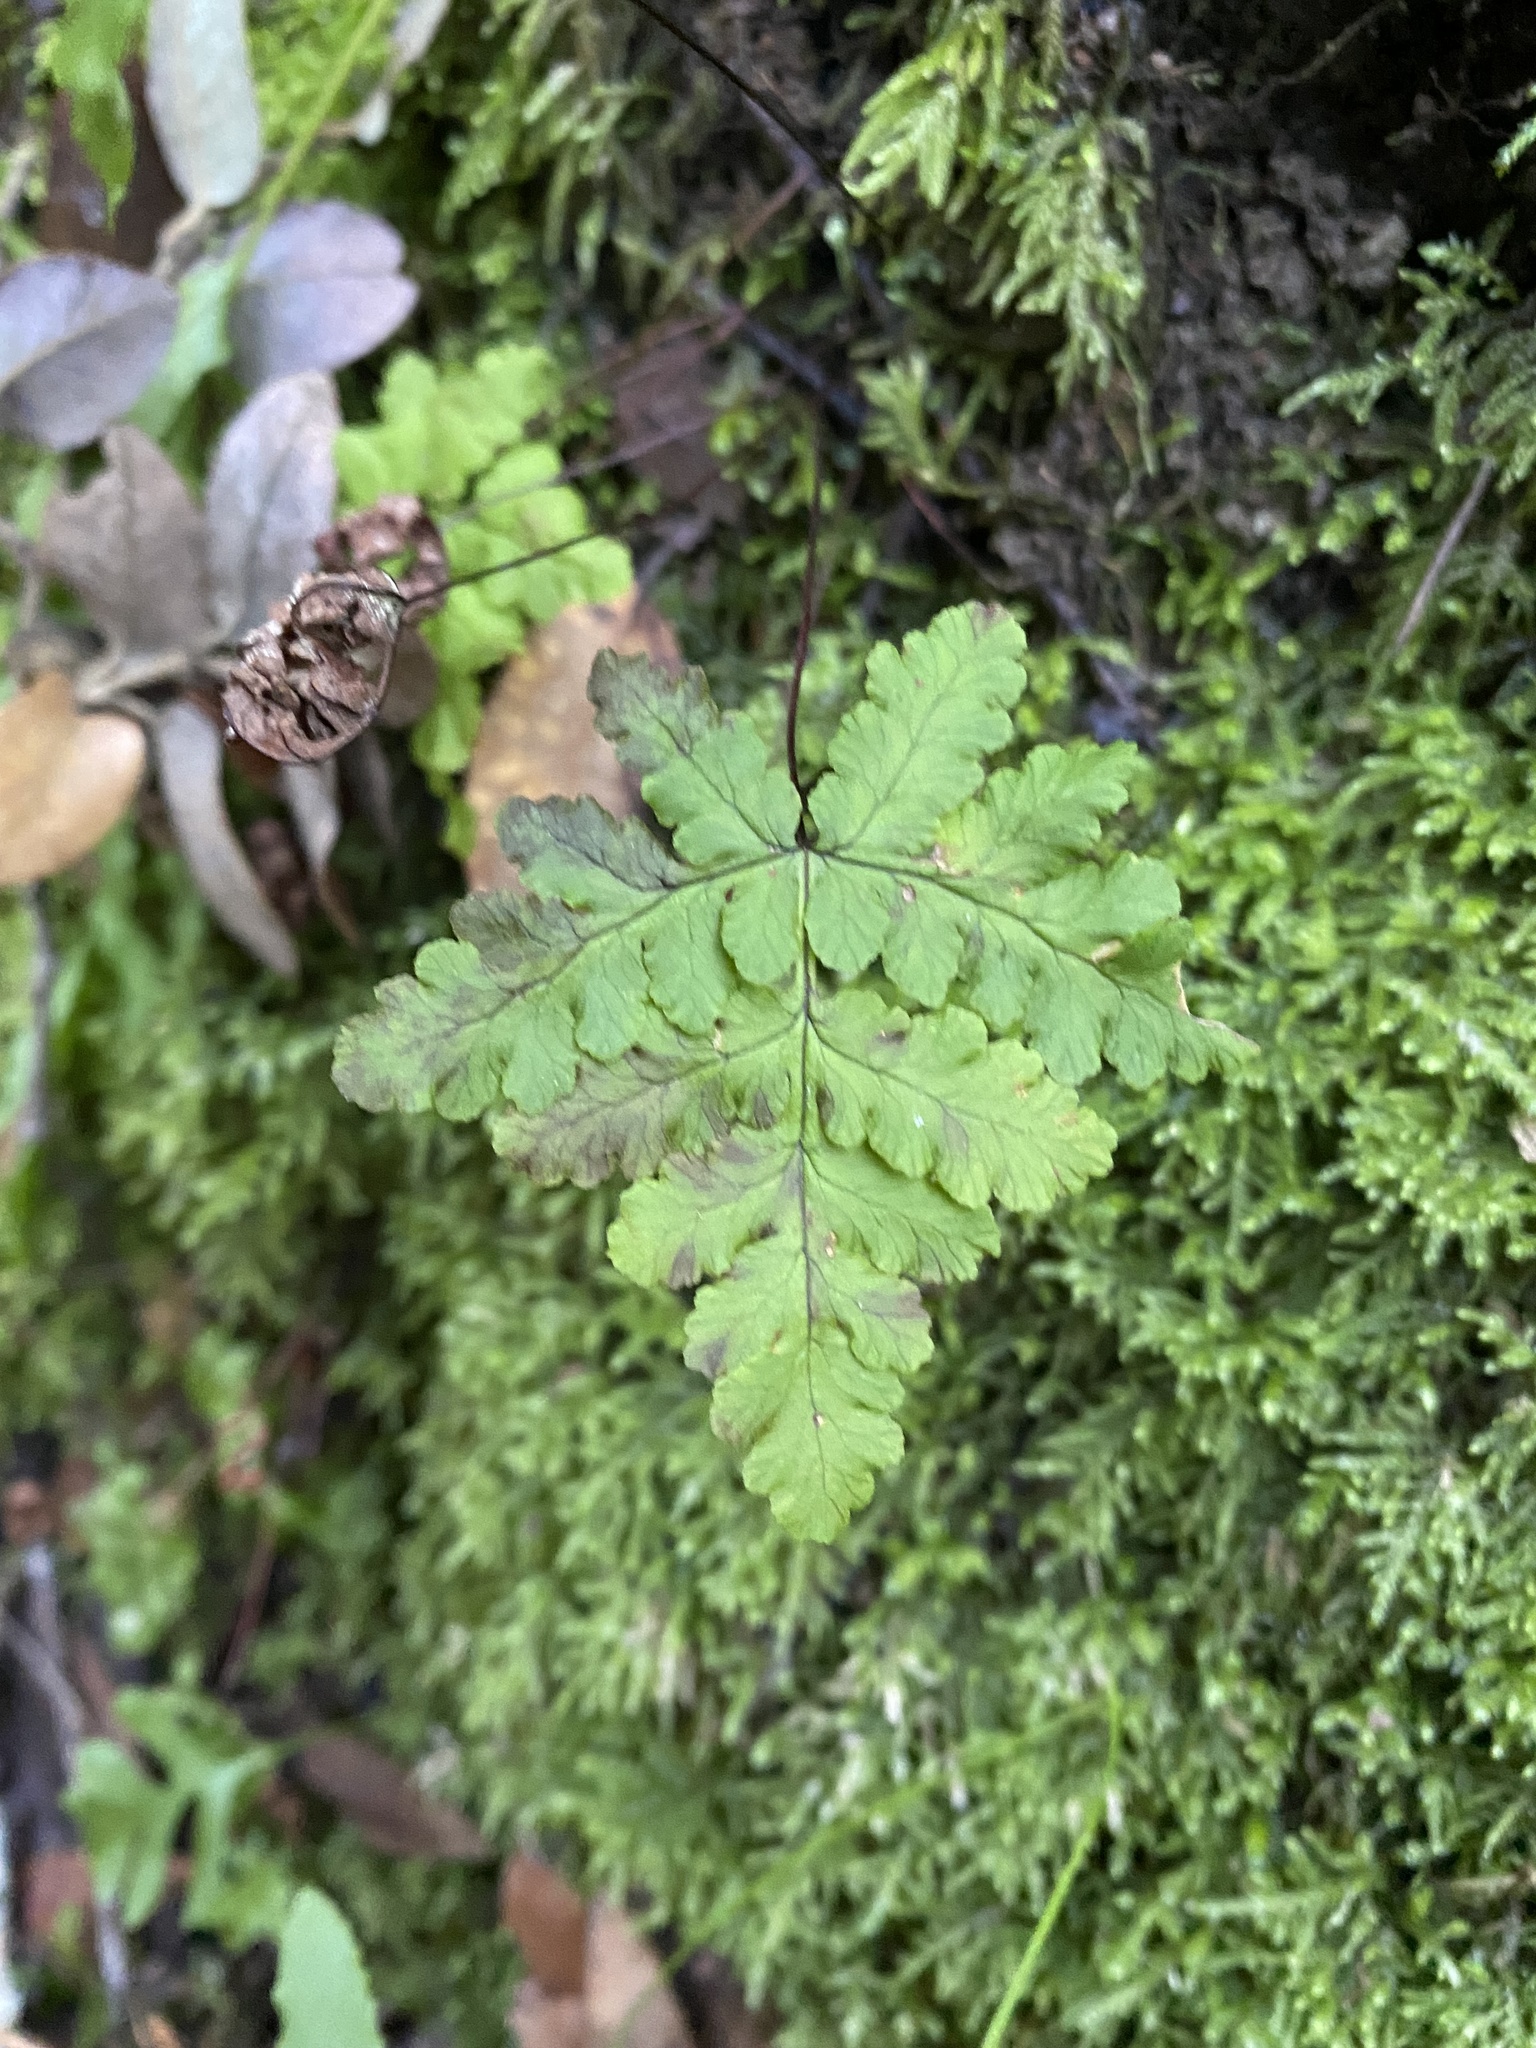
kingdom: Plantae
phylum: Tracheophyta
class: Polypodiopsida
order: Polypodiales
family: Pteridaceae
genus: Pentagramma
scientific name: Pentagramma triangularis
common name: Gold fern
